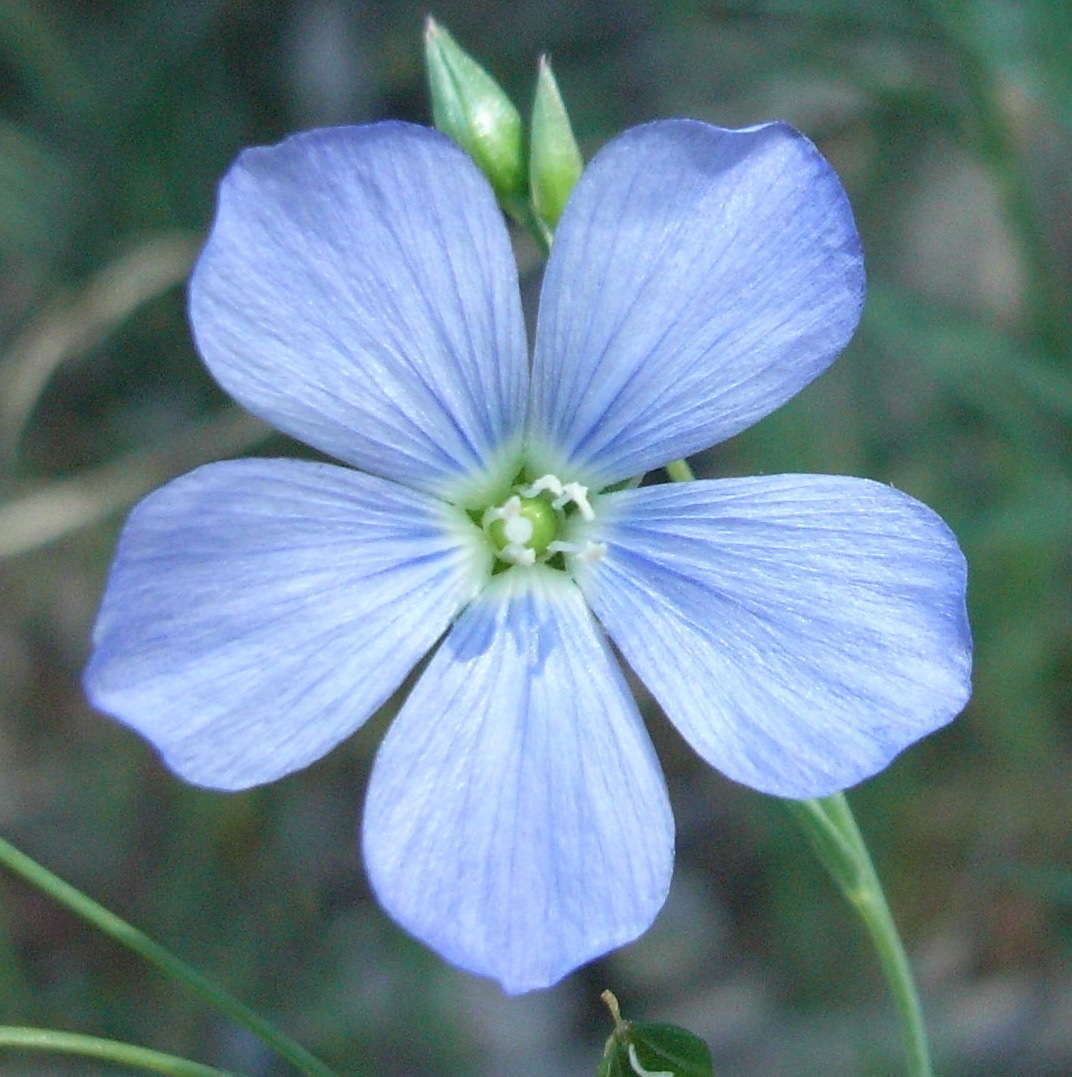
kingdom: Plantae
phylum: Tracheophyta
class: Magnoliopsida
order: Malpighiales
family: Linaceae
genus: Linum
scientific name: Linum marginale
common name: Wild flax
